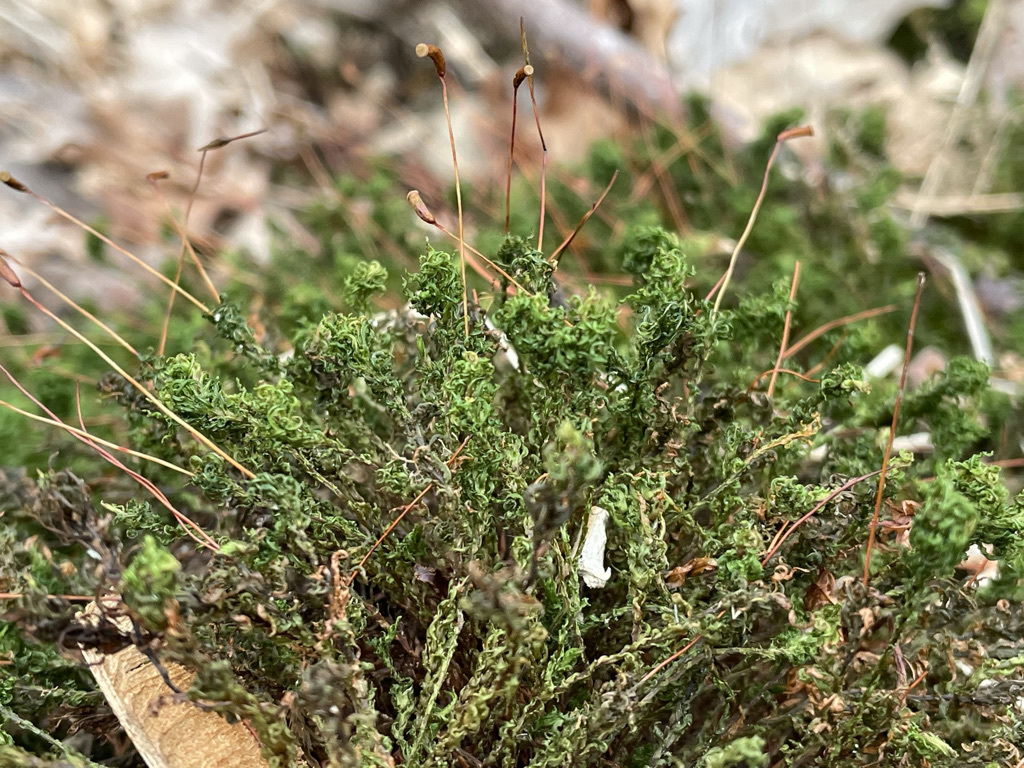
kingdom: Plantae
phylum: Bryophyta
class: Polytrichopsida
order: Polytrichales
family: Polytrichaceae
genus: Atrichum
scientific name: Atrichum undulatum
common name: Common smoothcap
